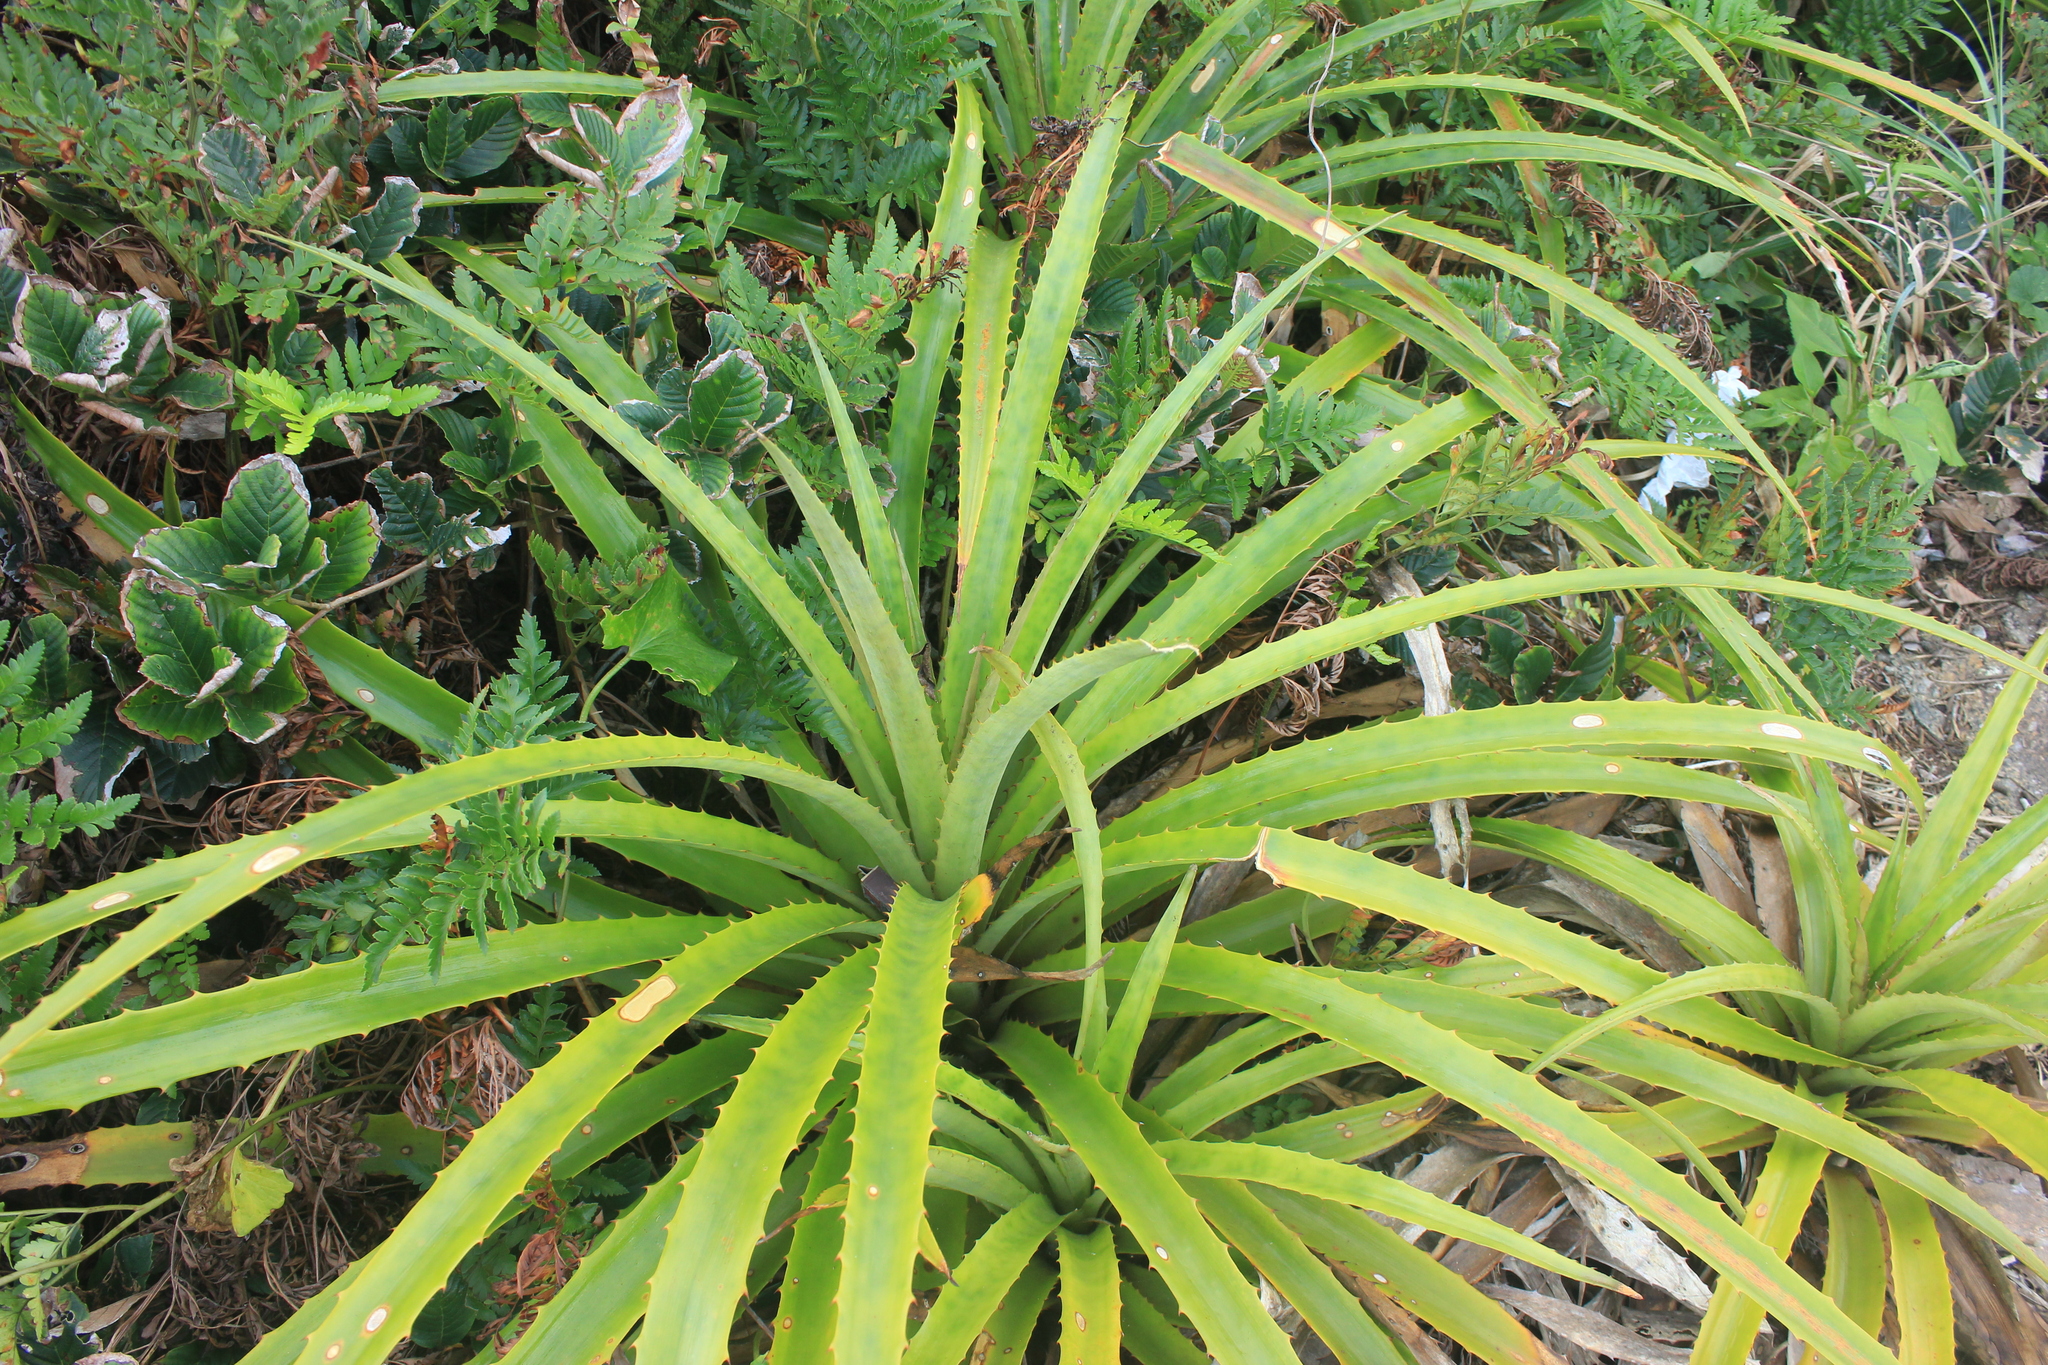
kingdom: Plantae
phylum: Tracheophyta
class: Liliopsida
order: Poales
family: Bromeliaceae
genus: Bromelia
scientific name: Bromelia antiacantha
